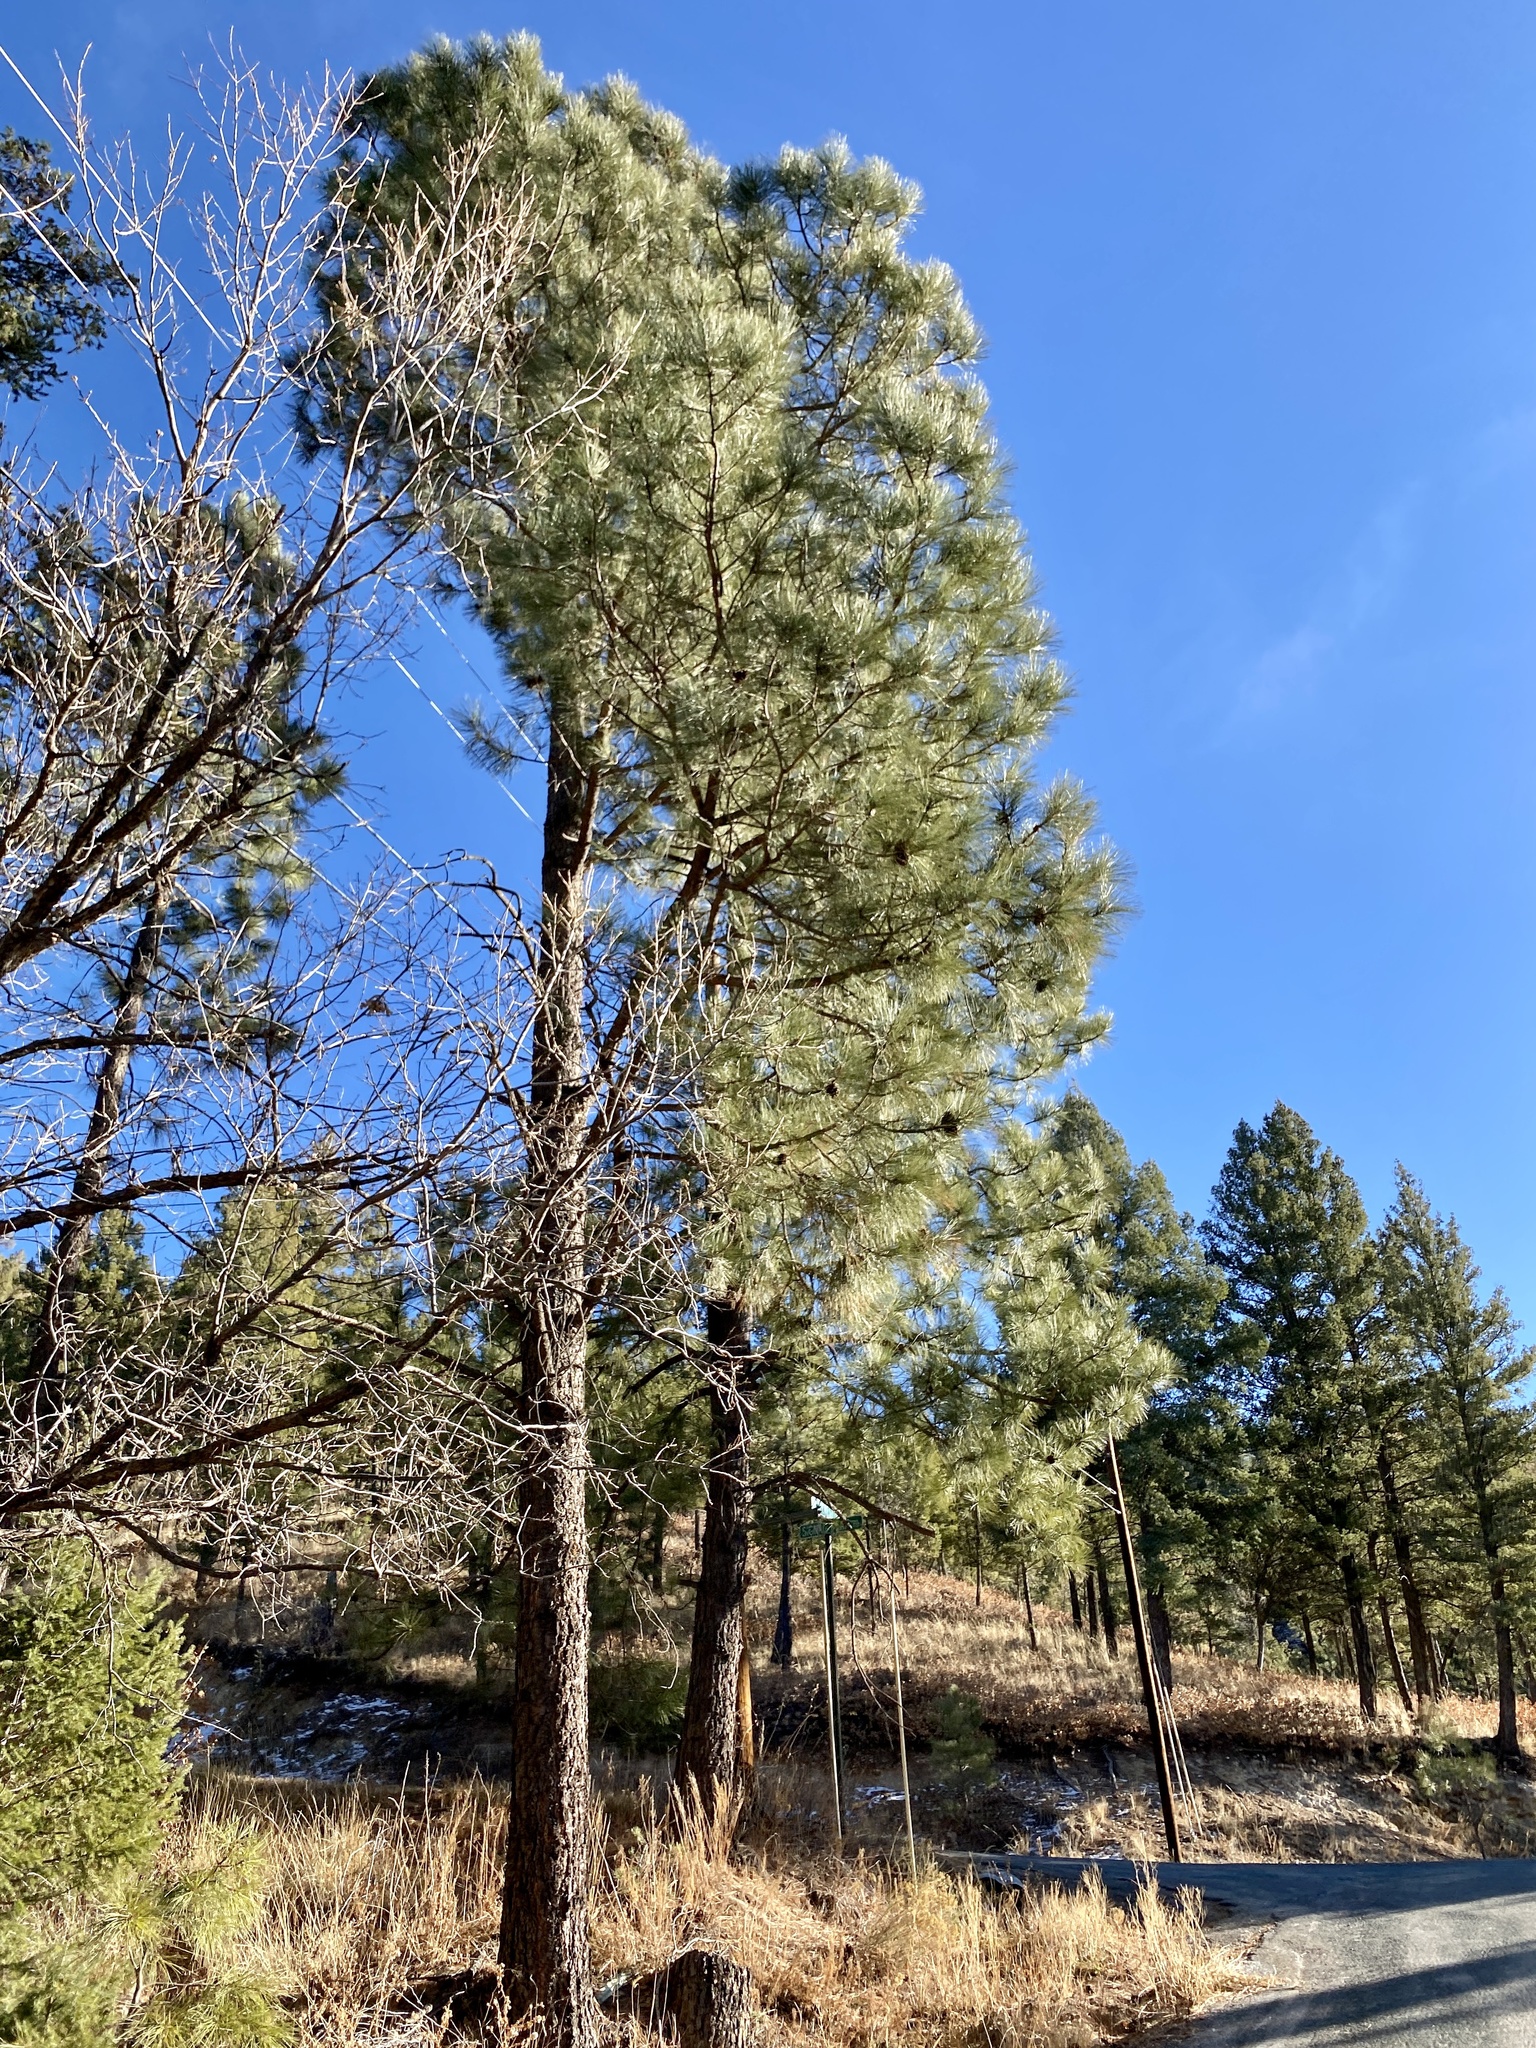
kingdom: Plantae
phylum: Tracheophyta
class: Pinopsida
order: Pinales
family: Pinaceae
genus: Pinus
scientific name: Pinus ponderosa
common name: Western yellow-pine
